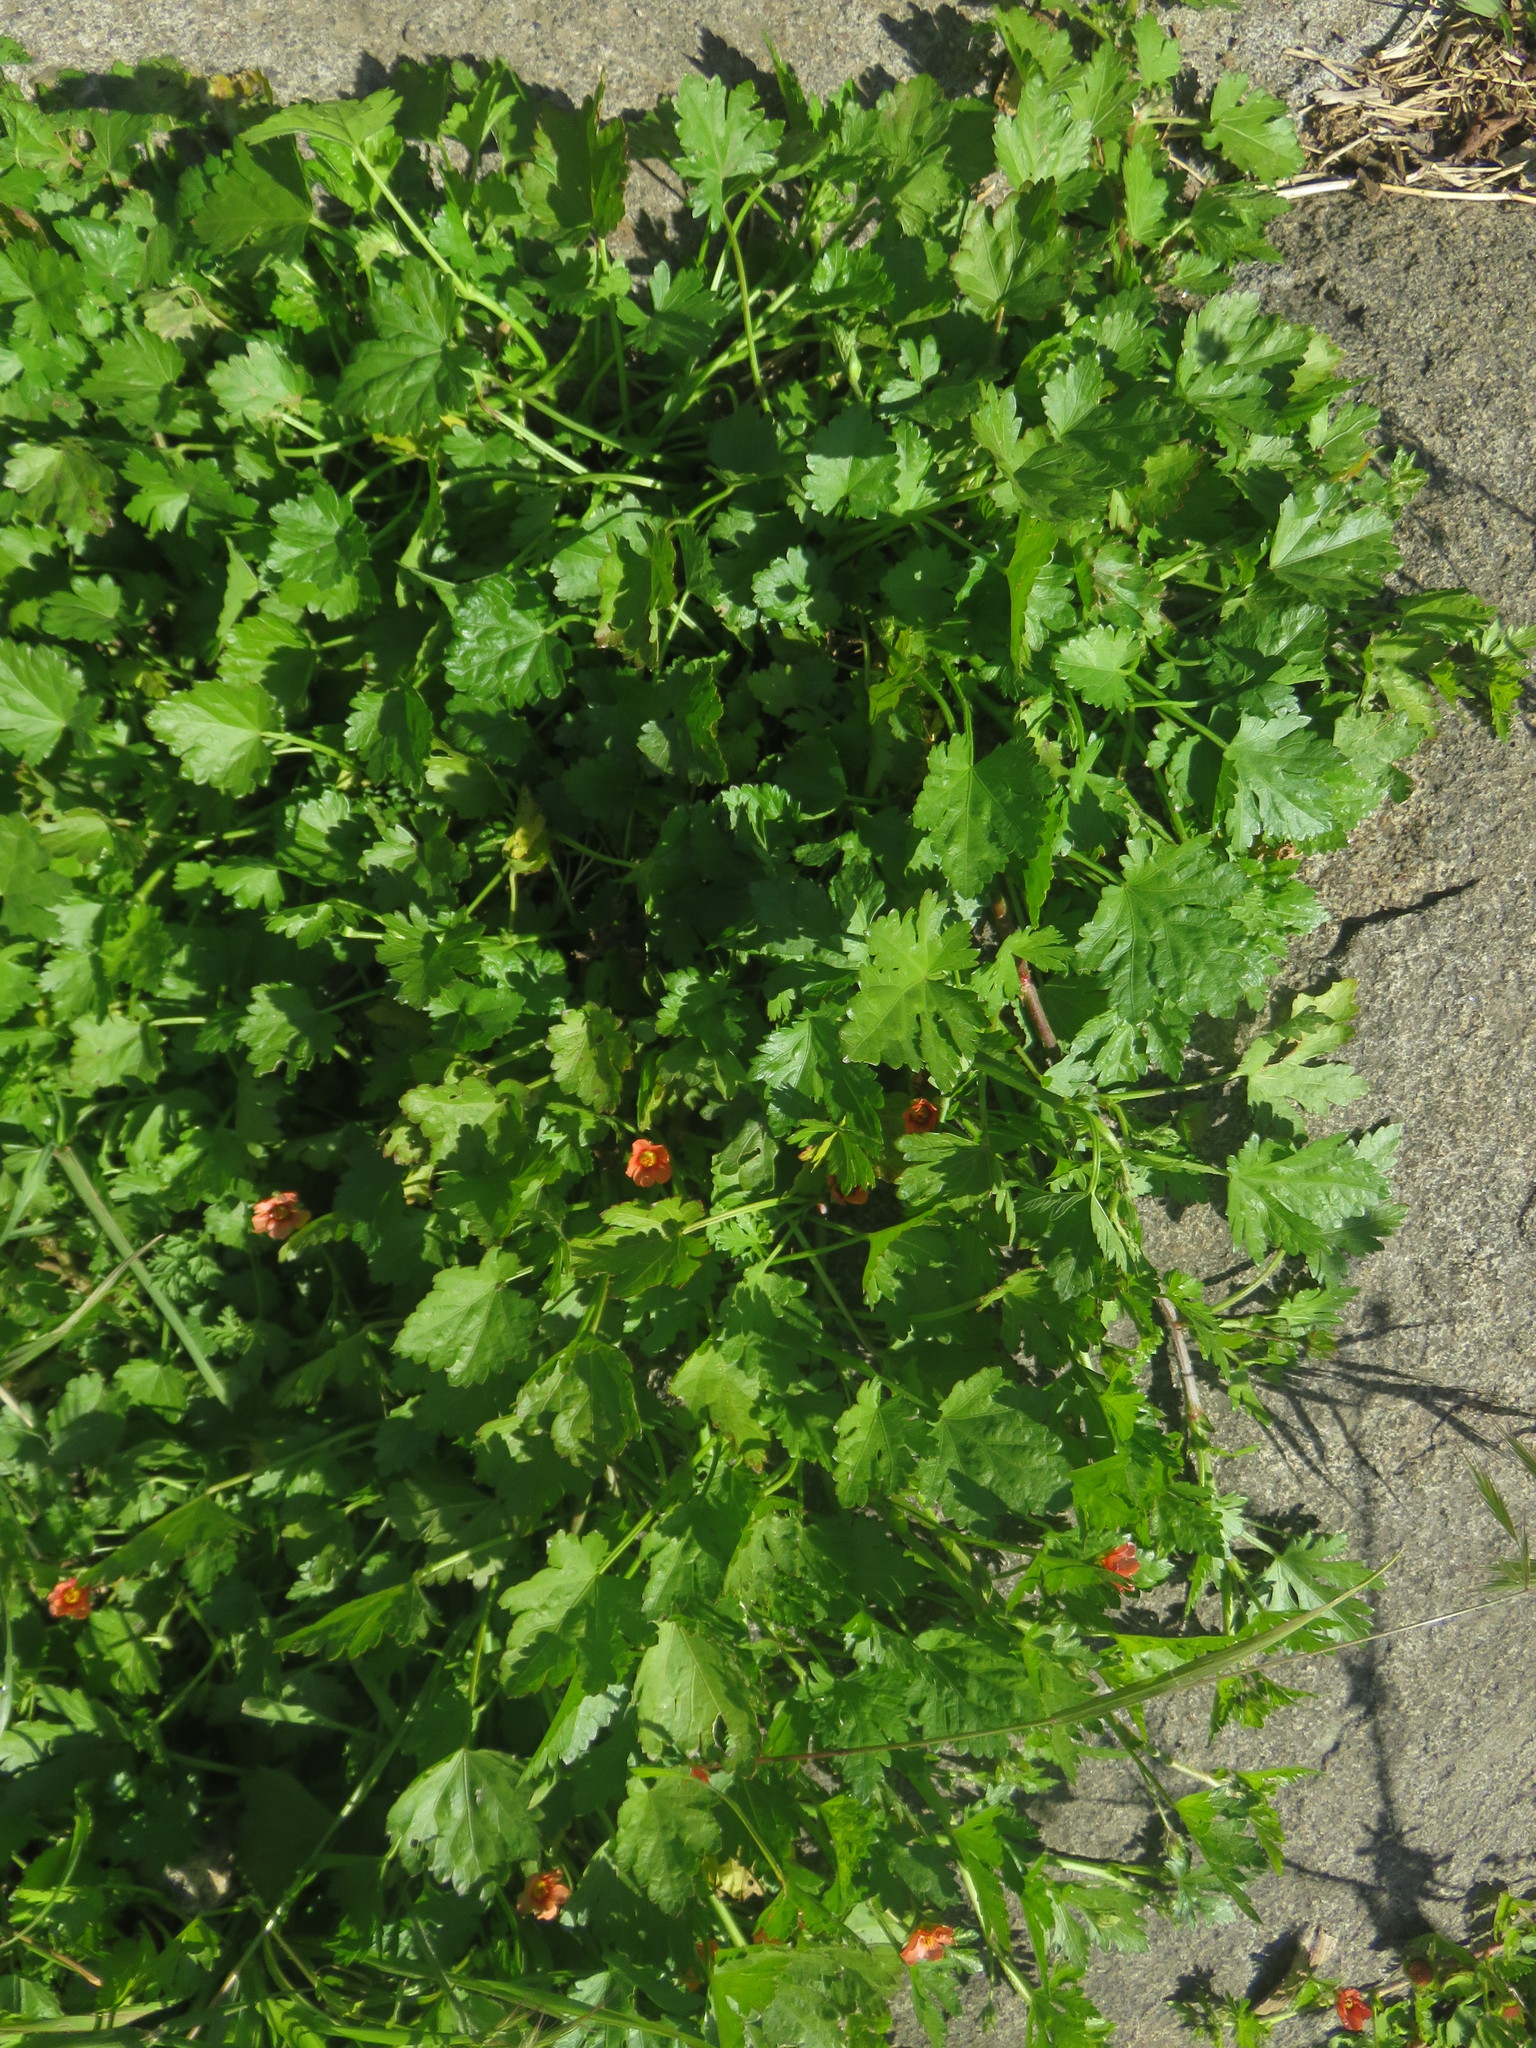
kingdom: Plantae
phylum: Tracheophyta
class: Magnoliopsida
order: Malvales
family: Malvaceae
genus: Modiola
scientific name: Modiola caroliniana
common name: Carolina bristlemallow
